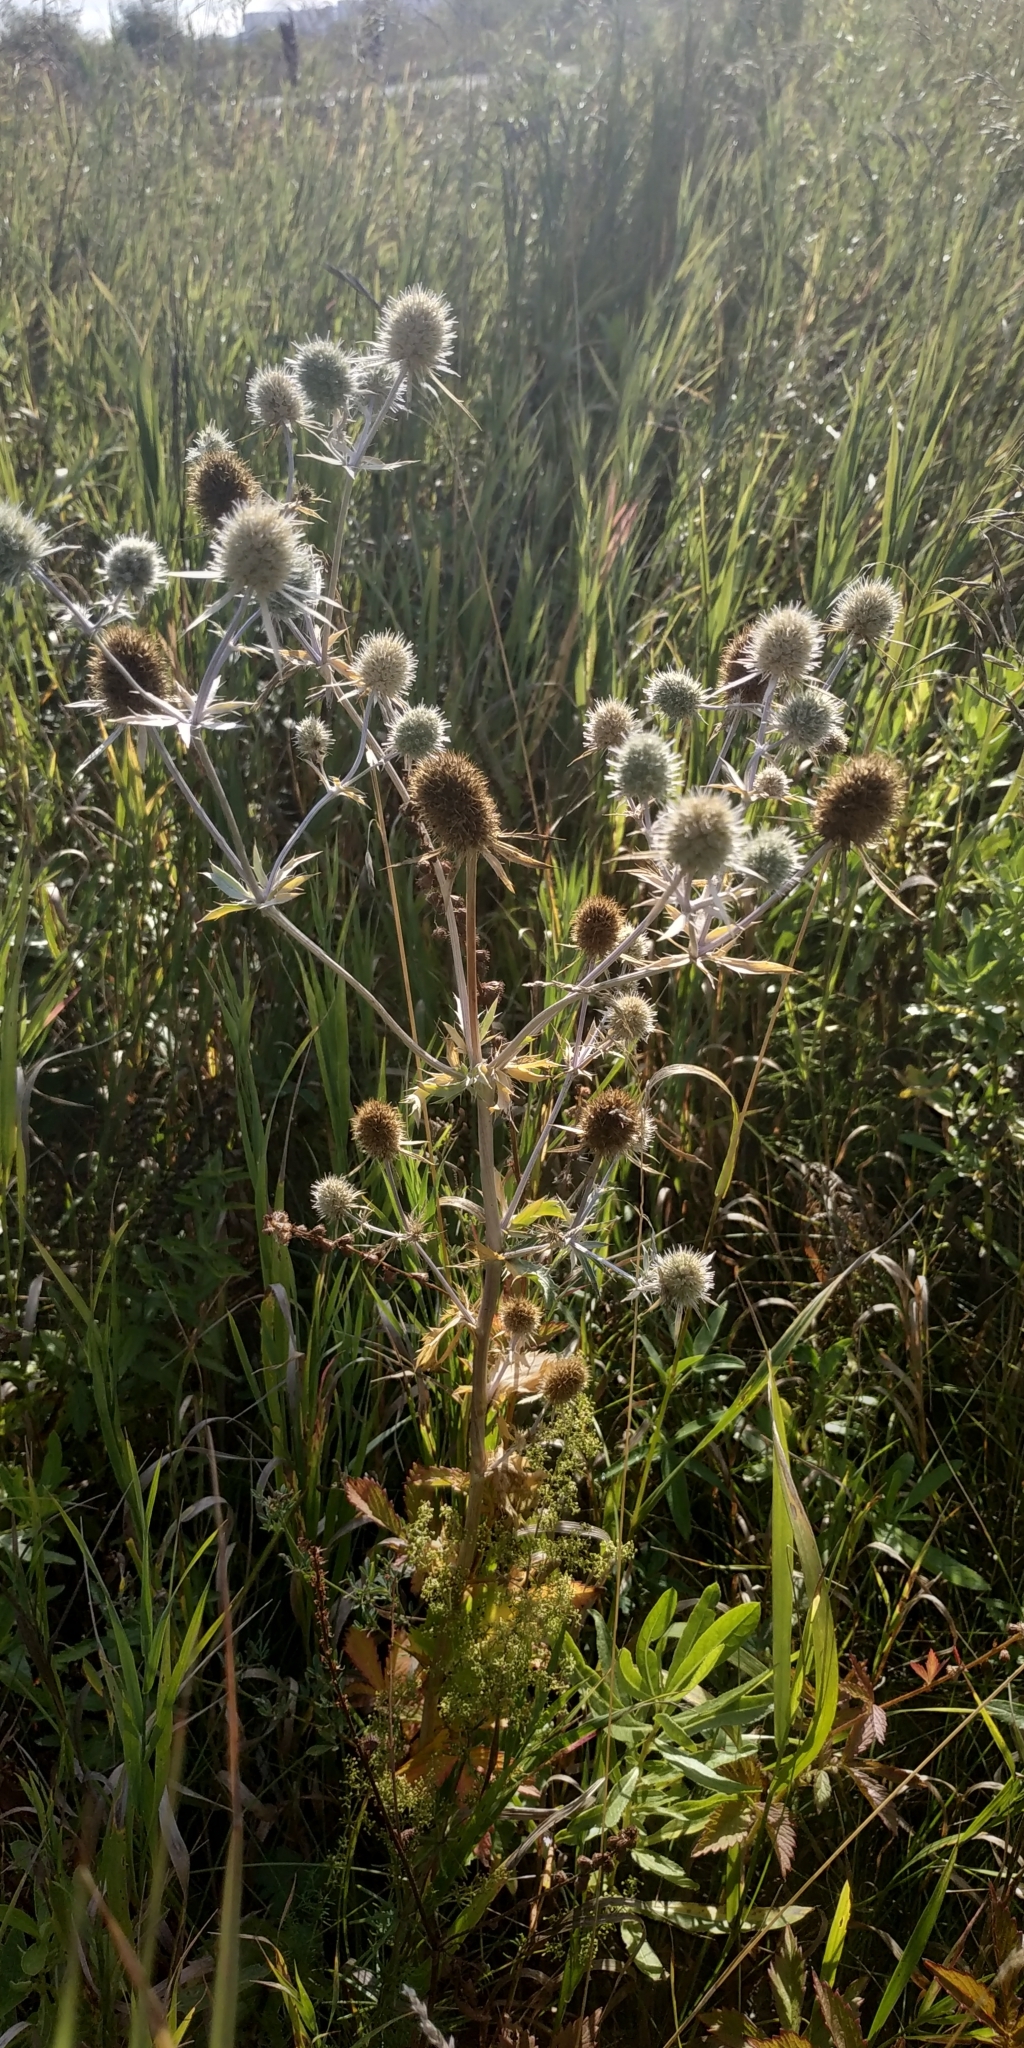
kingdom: Plantae
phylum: Tracheophyta
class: Magnoliopsida
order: Apiales
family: Apiaceae
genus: Eryngium
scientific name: Eryngium planum
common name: Blue eryngo
